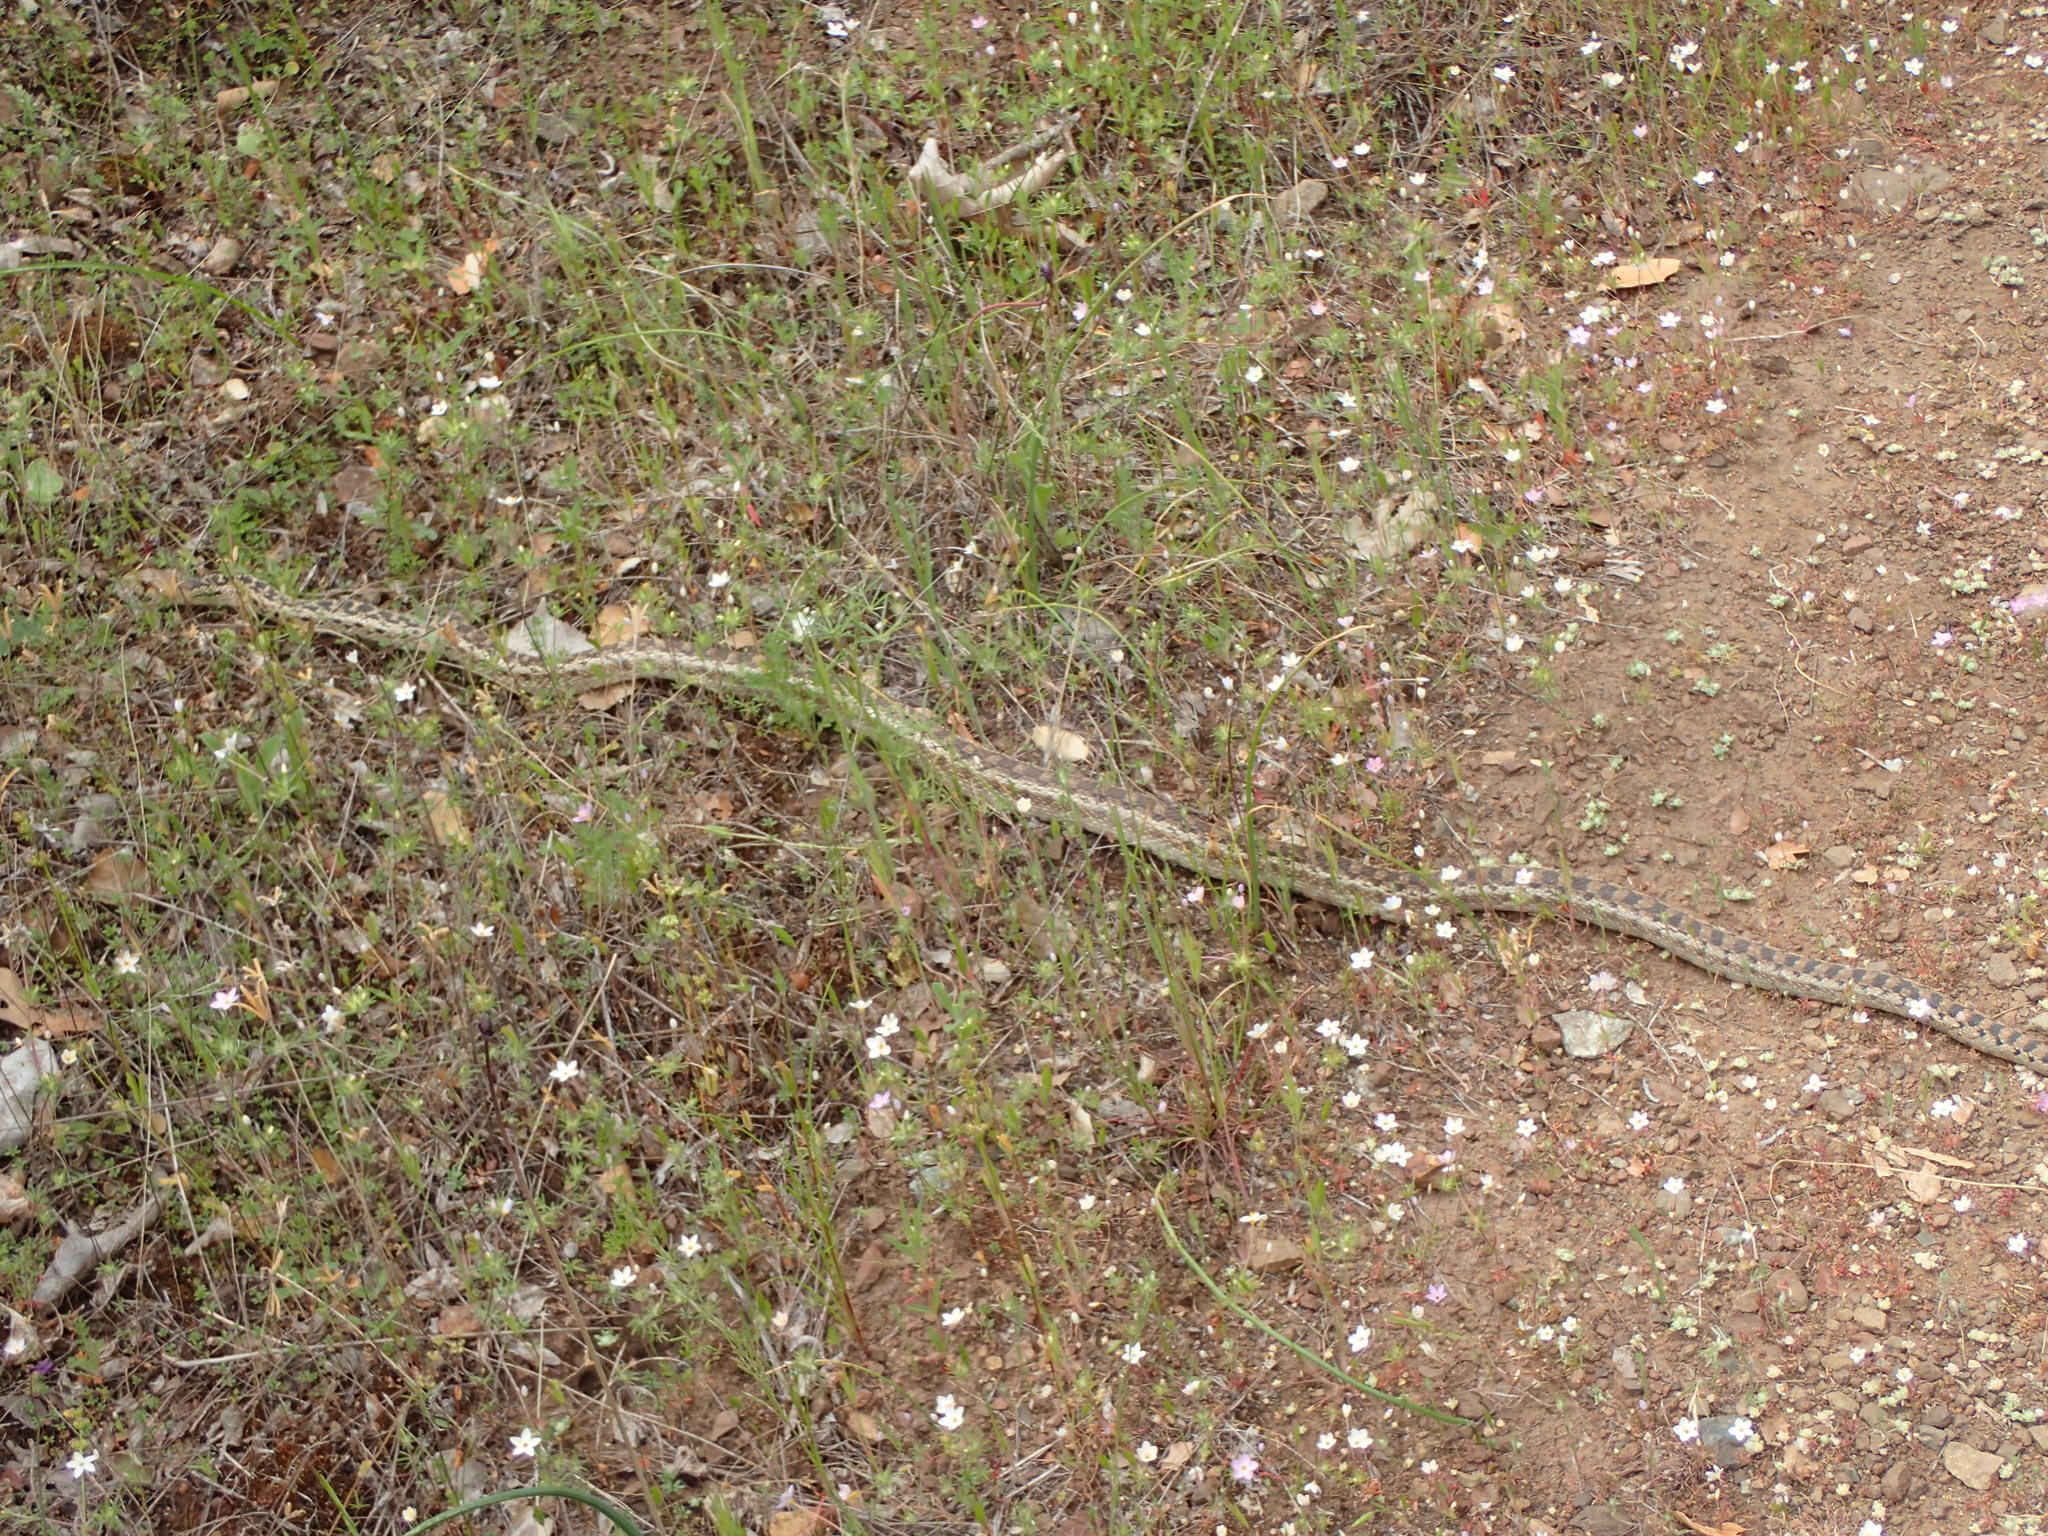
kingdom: Animalia
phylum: Chordata
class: Squamata
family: Colubridae
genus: Pituophis
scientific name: Pituophis catenifer
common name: Gopher snake
